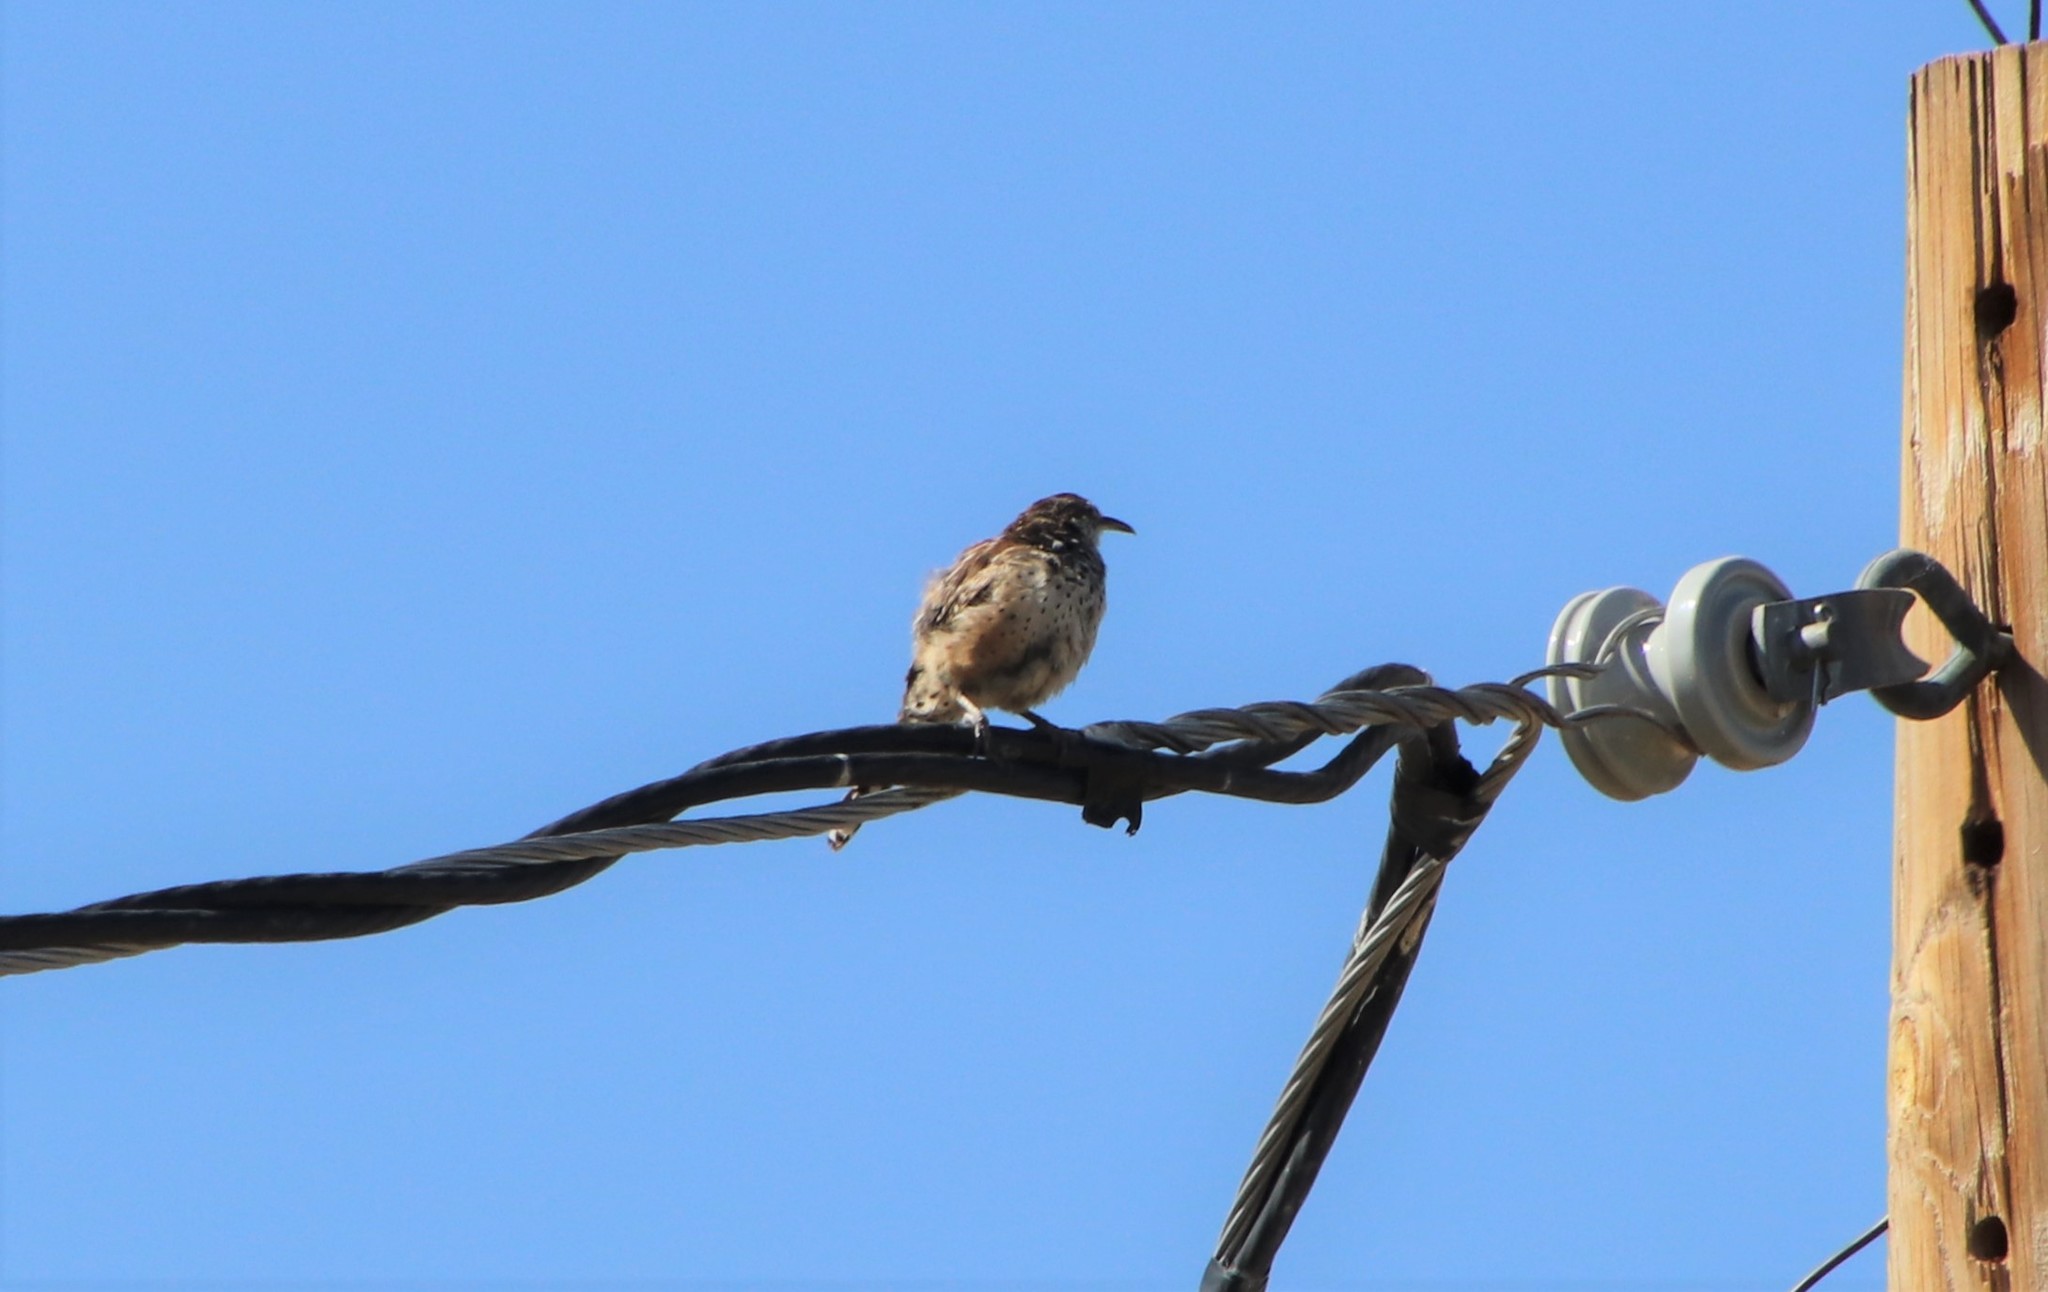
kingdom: Animalia
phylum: Chordata
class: Aves
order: Passeriformes
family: Troglodytidae
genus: Campylorhynchus
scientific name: Campylorhynchus brunneicapillus
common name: Cactus wren
